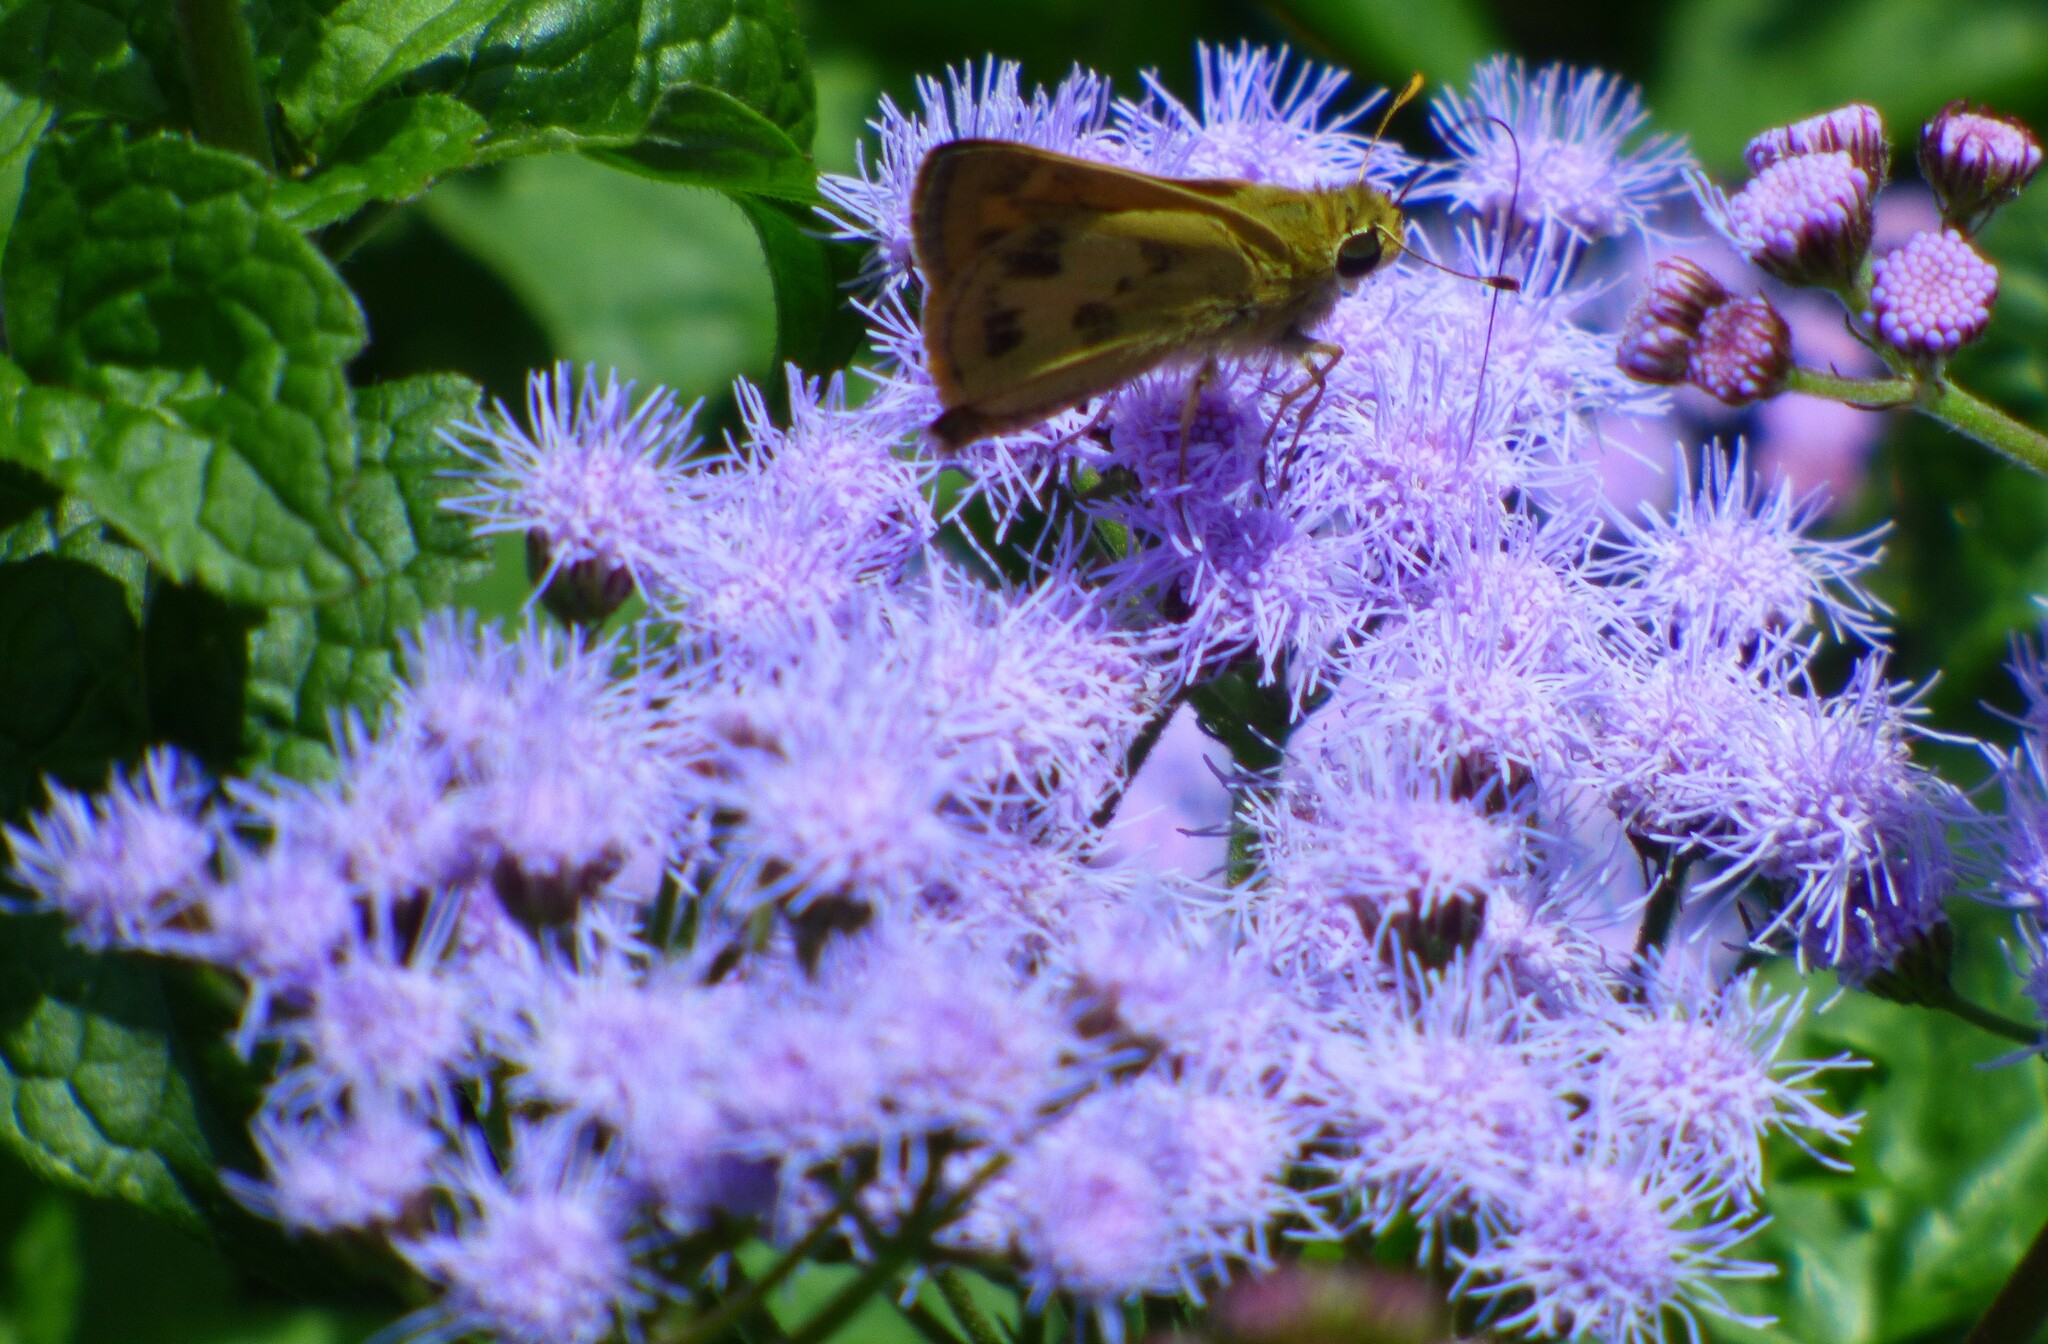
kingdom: Animalia
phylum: Arthropoda
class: Insecta
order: Lepidoptera
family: Hesperiidae
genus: Polites
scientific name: Polites vibex
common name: Whirlabout
